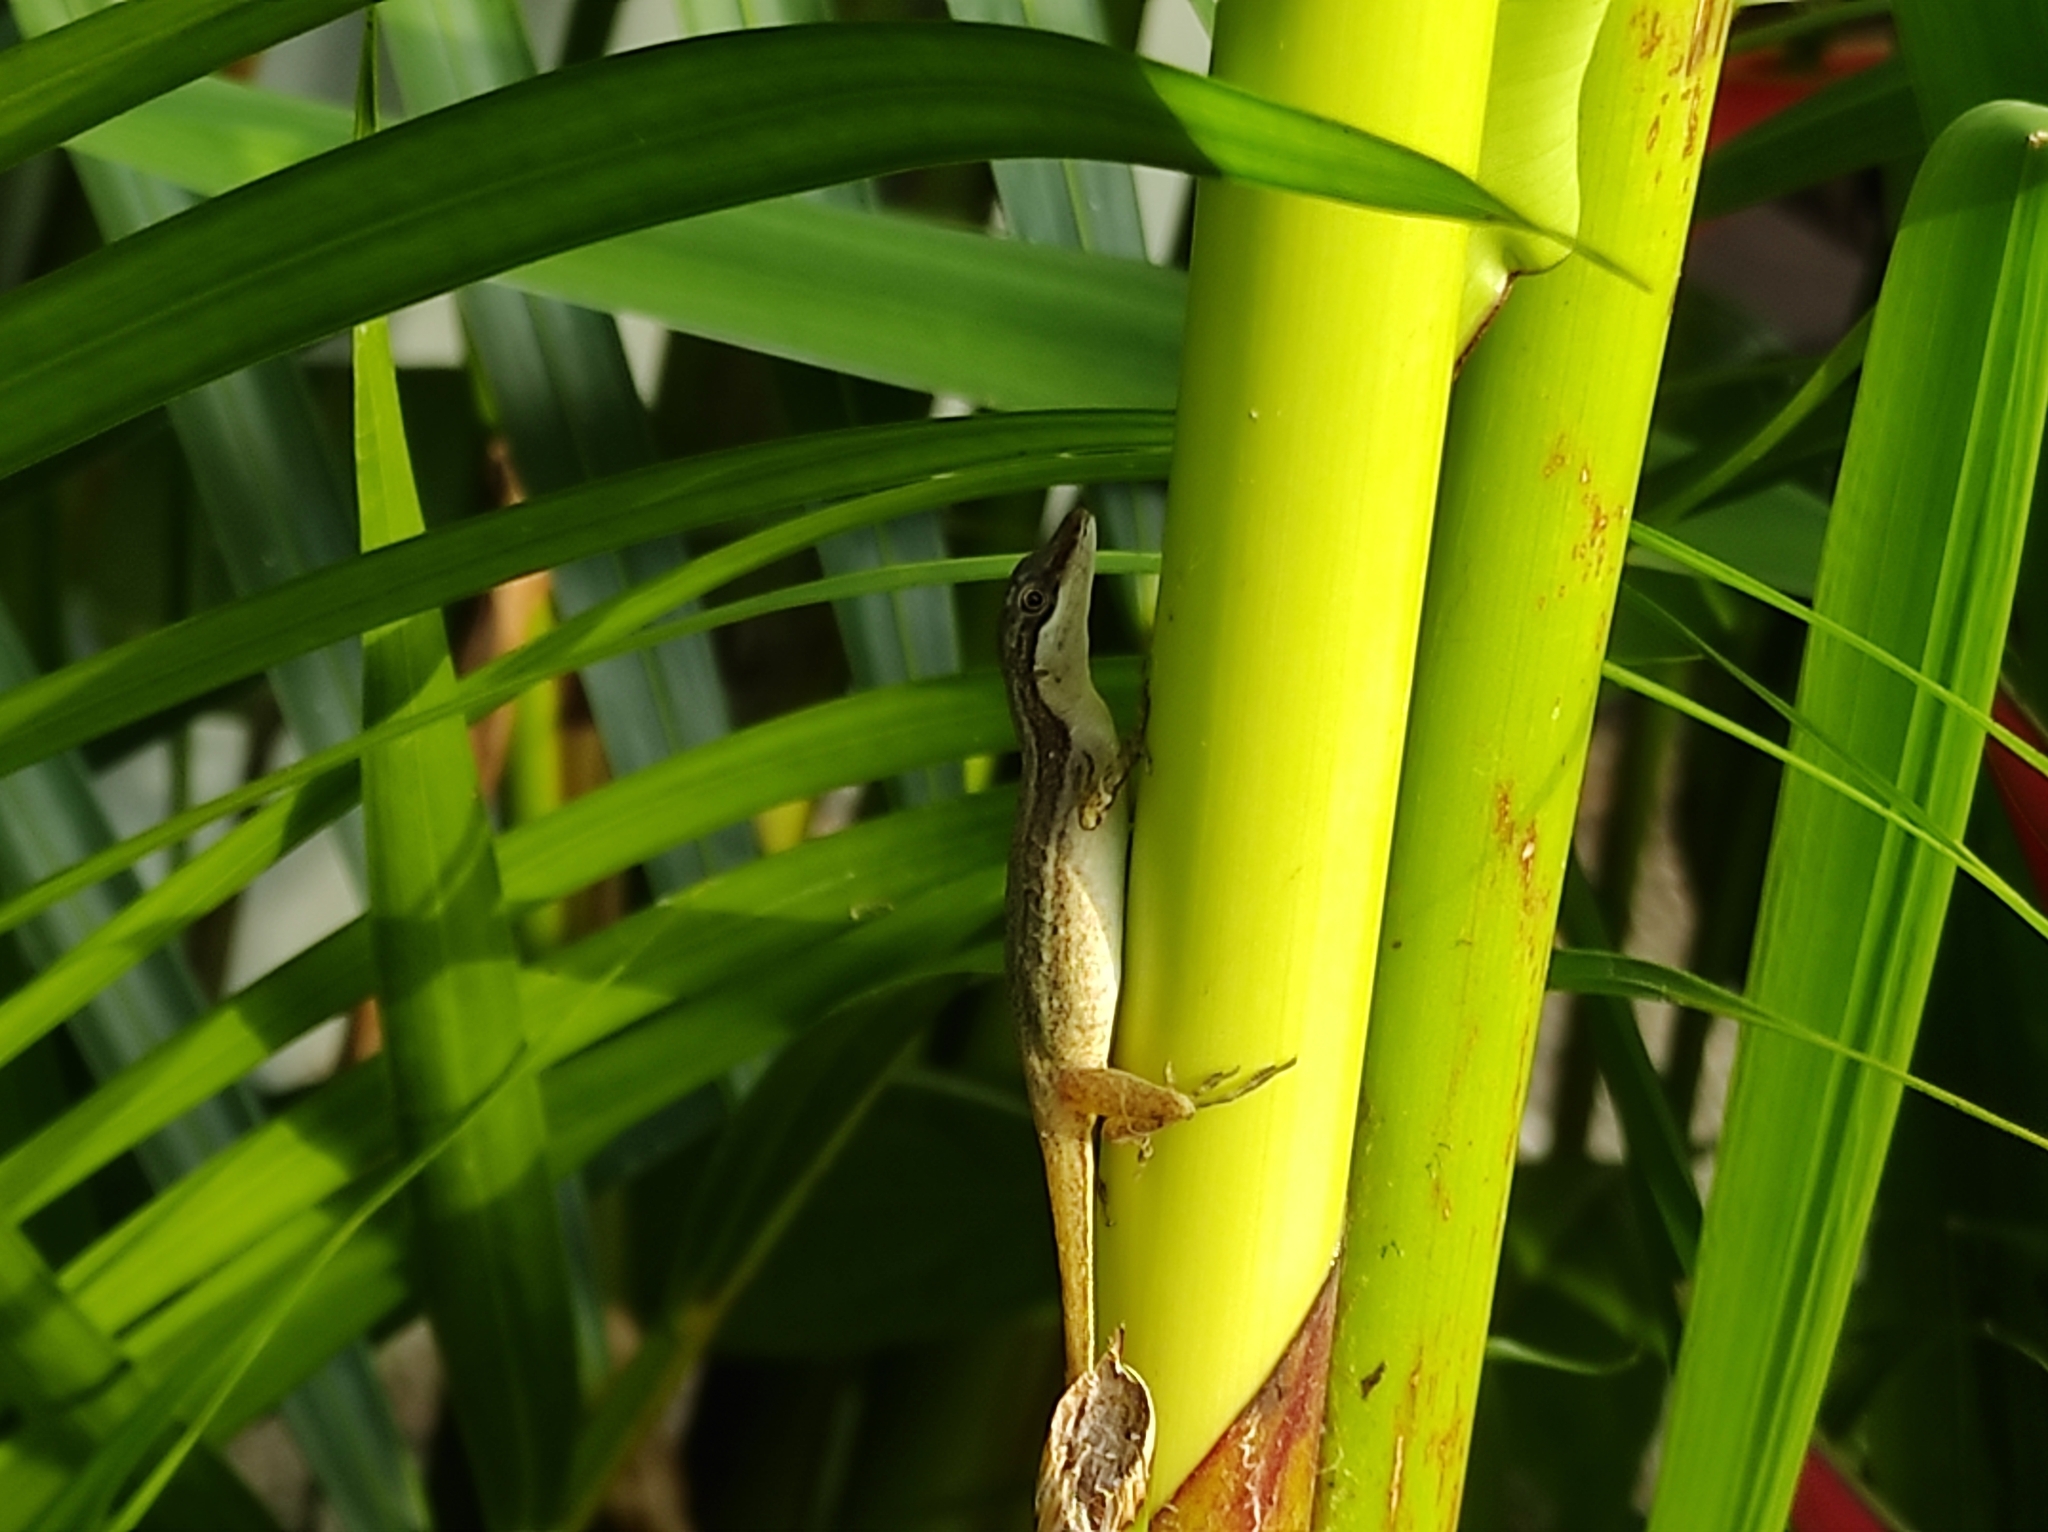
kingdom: Animalia
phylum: Chordata
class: Squamata
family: Dactyloidae
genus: Anolis
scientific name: Anolis limifrons
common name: Border anole
